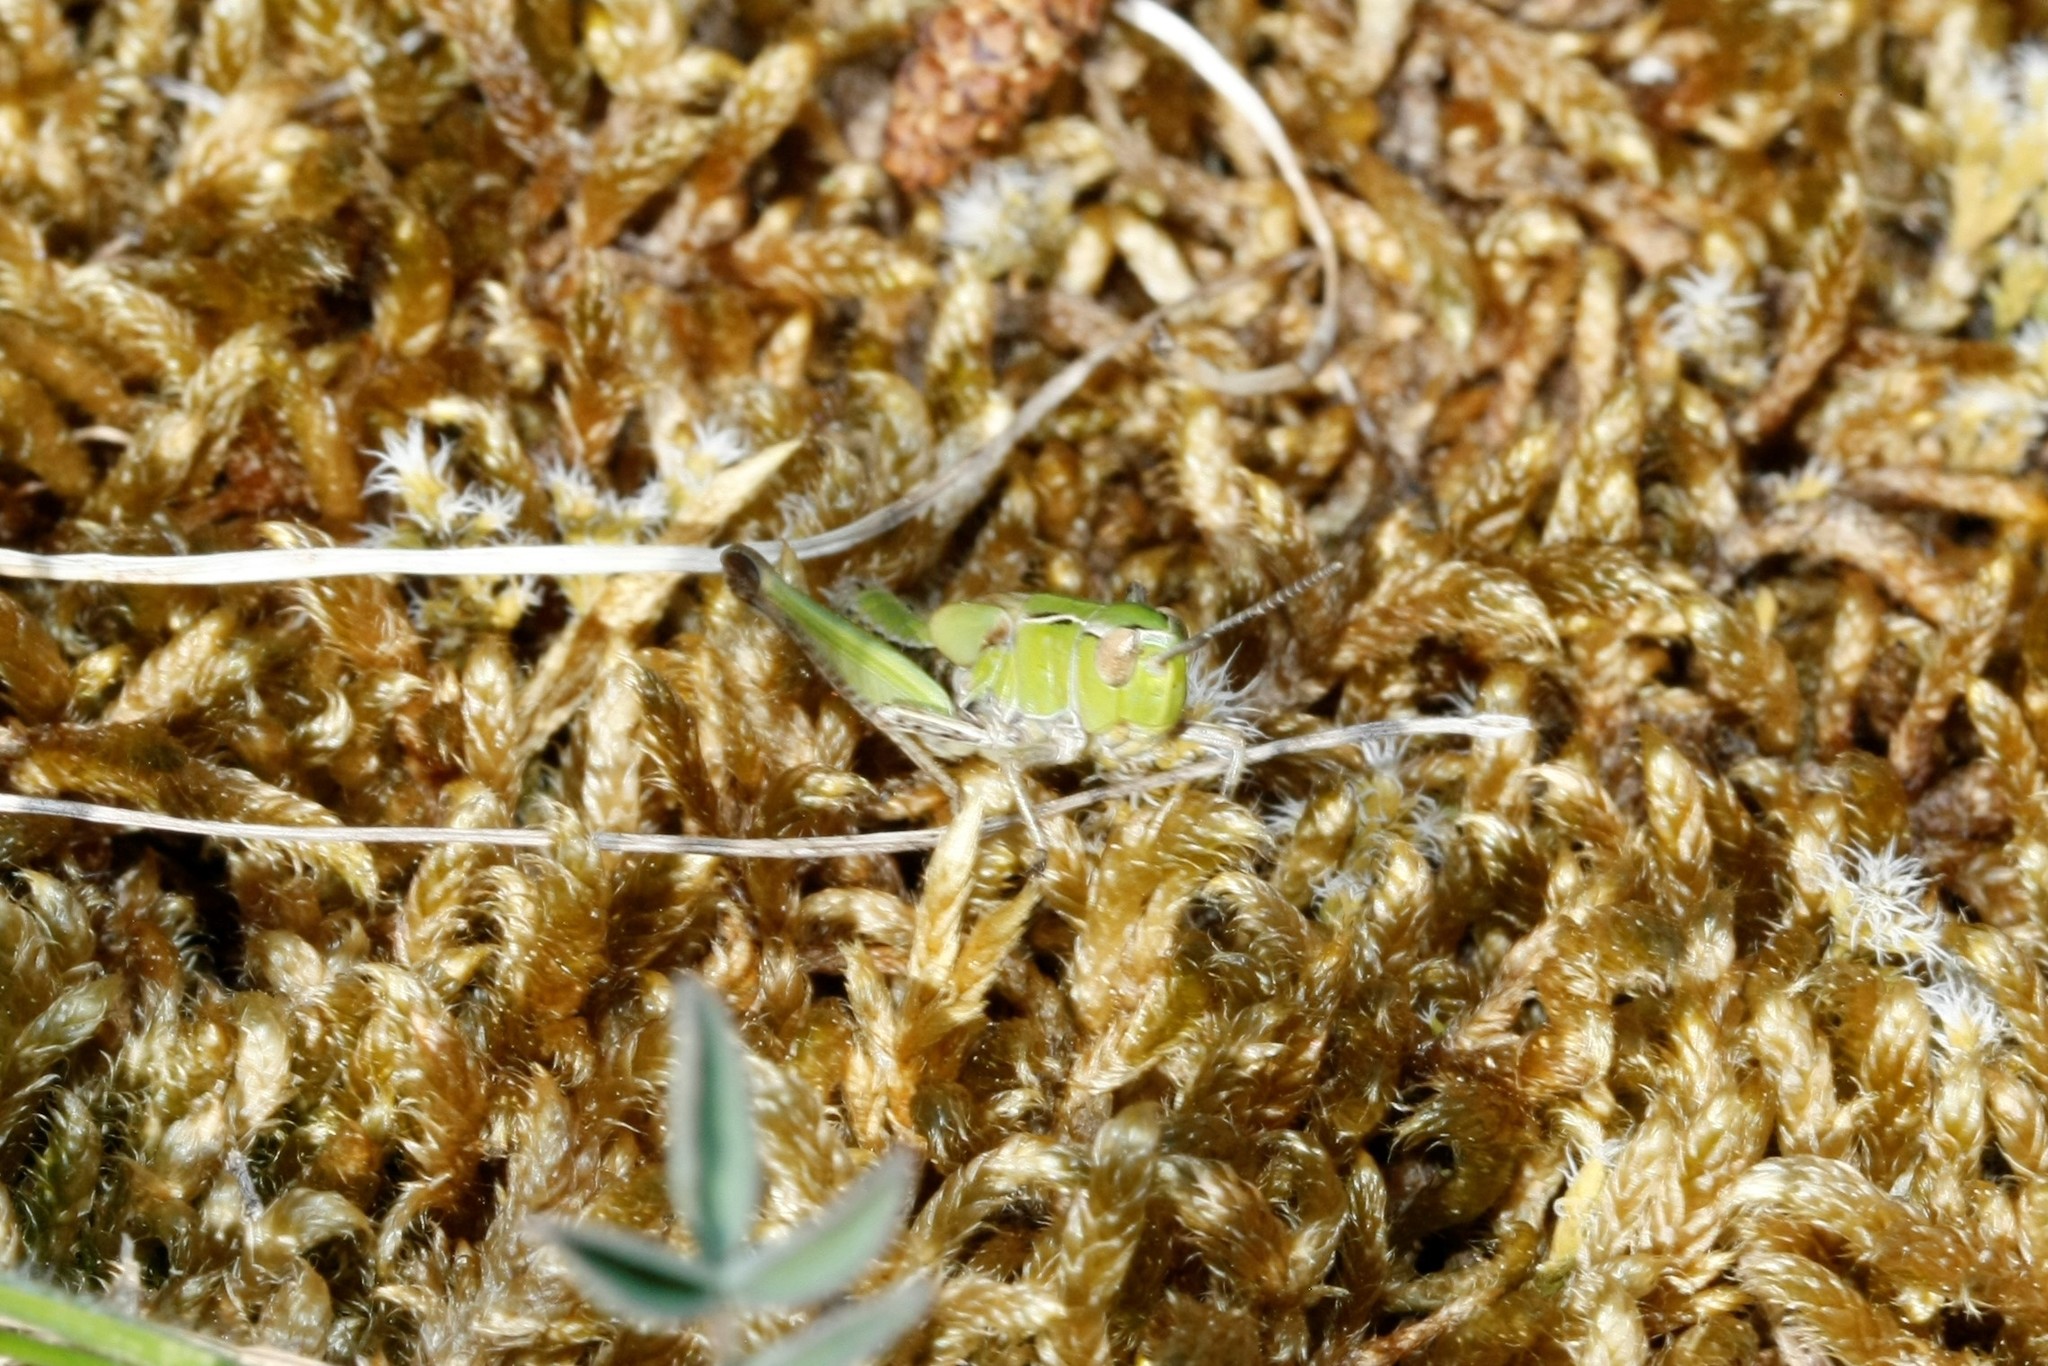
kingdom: Animalia
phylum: Arthropoda
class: Insecta
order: Orthoptera
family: Acrididae
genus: Stenobothrus
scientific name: Stenobothrus lineatus
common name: Stripe-winged grasshopper
